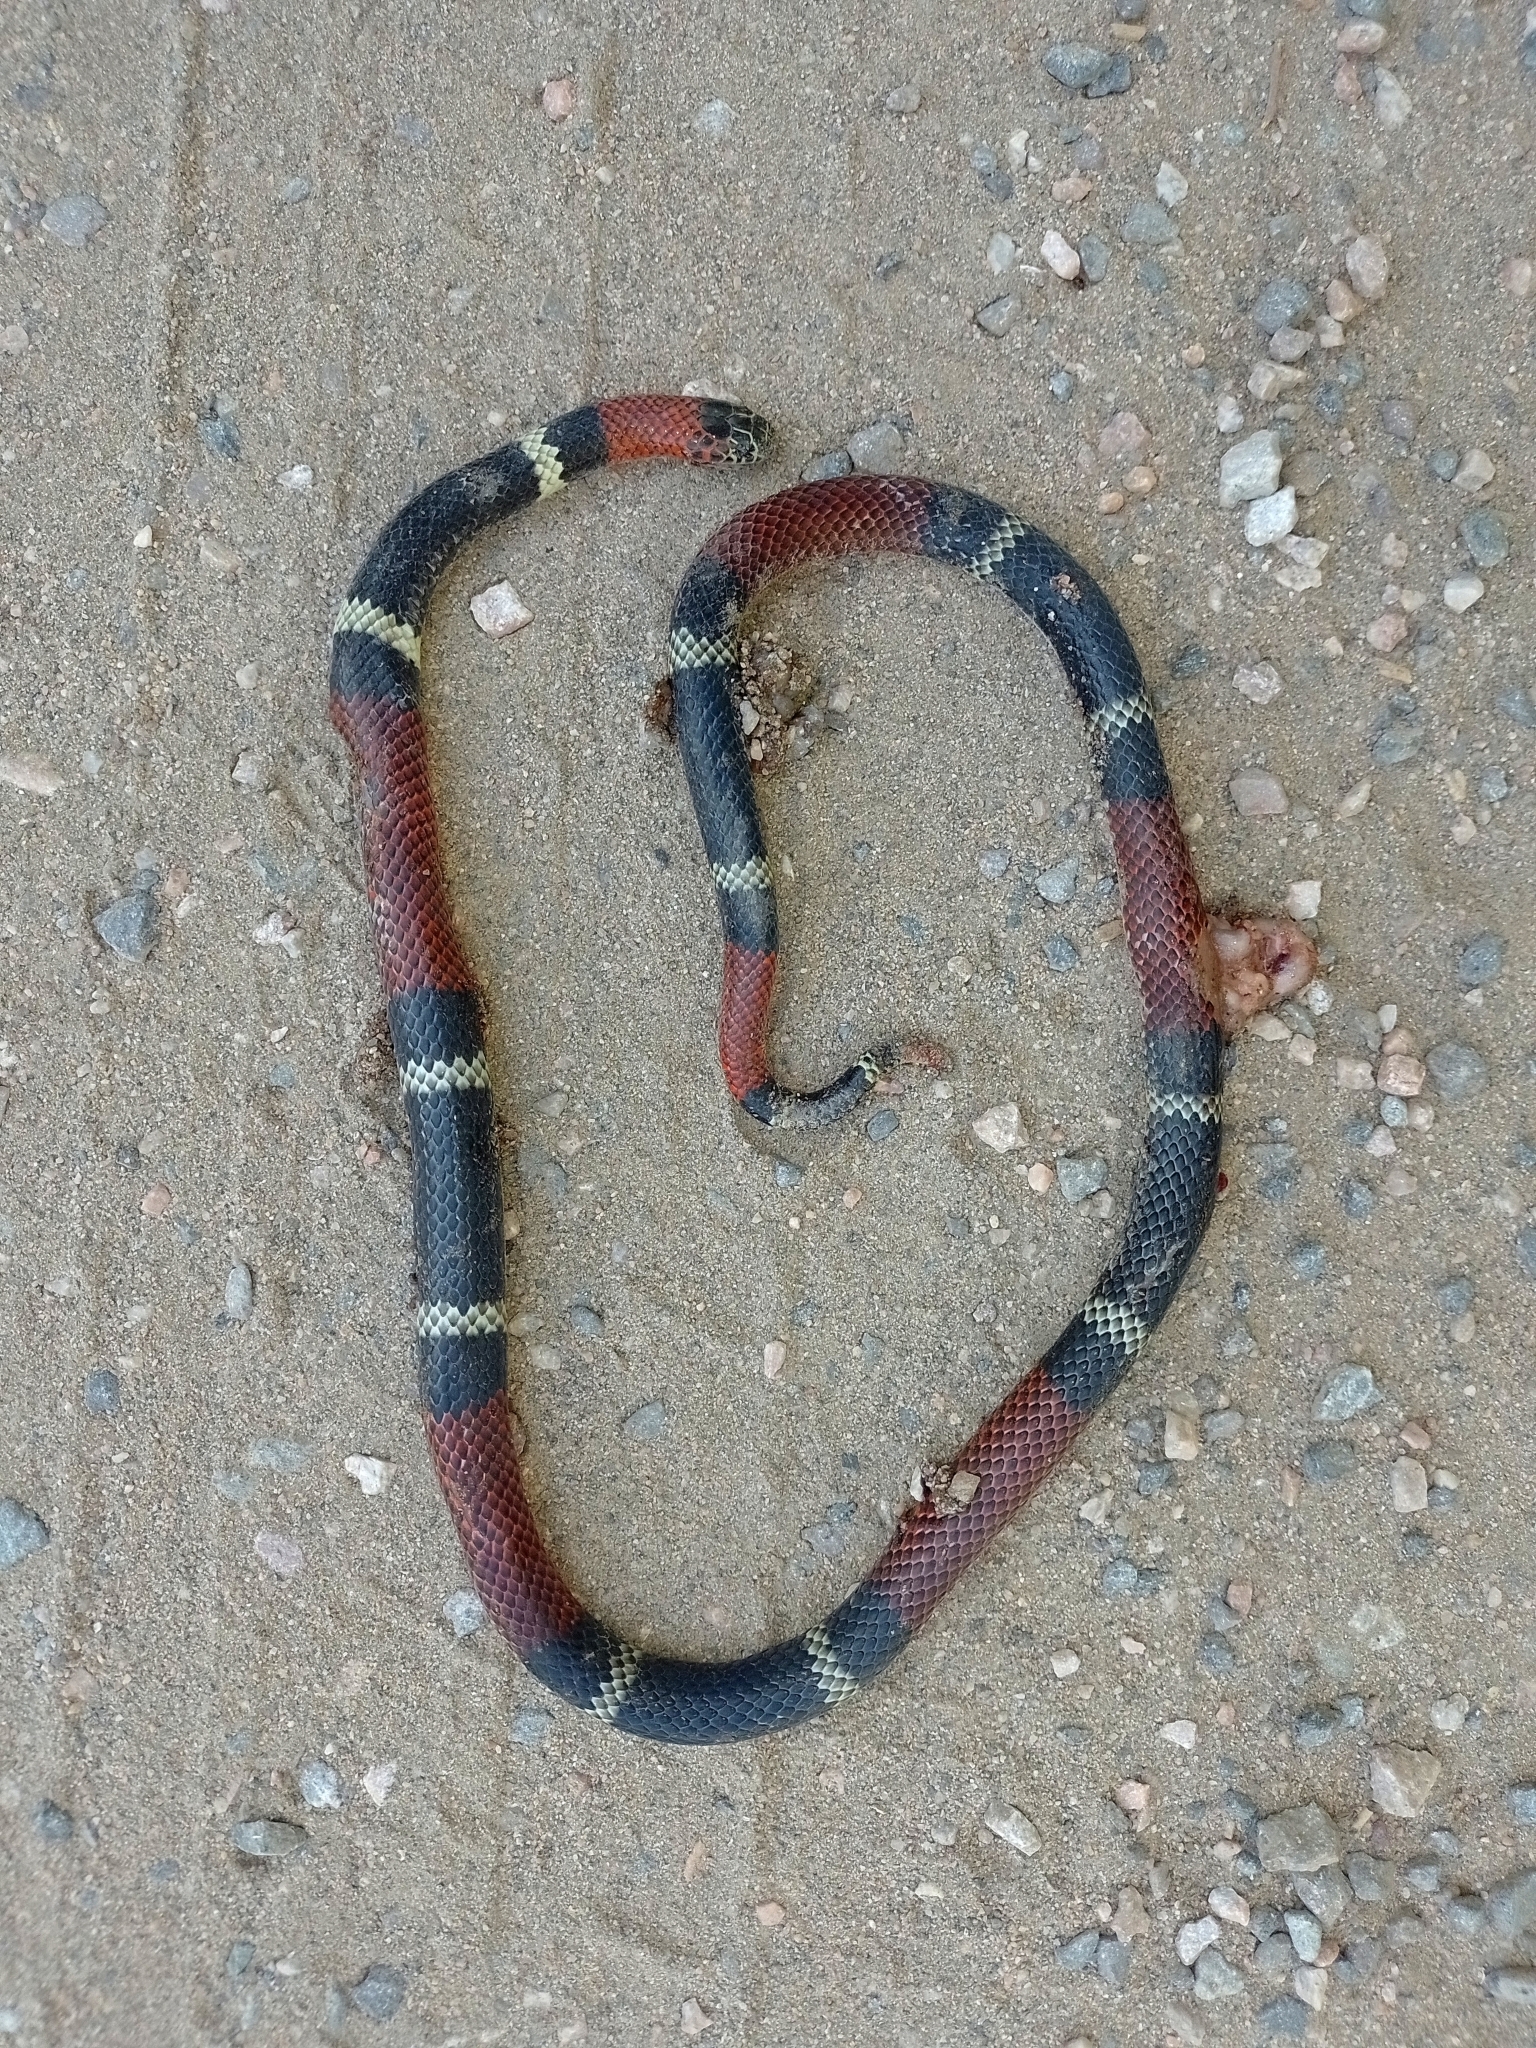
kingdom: Animalia
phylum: Chordata
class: Squamata
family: Elapidae
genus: Micrurus
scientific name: Micrurus pyrrhocryptus
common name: Argentinian coral snake
